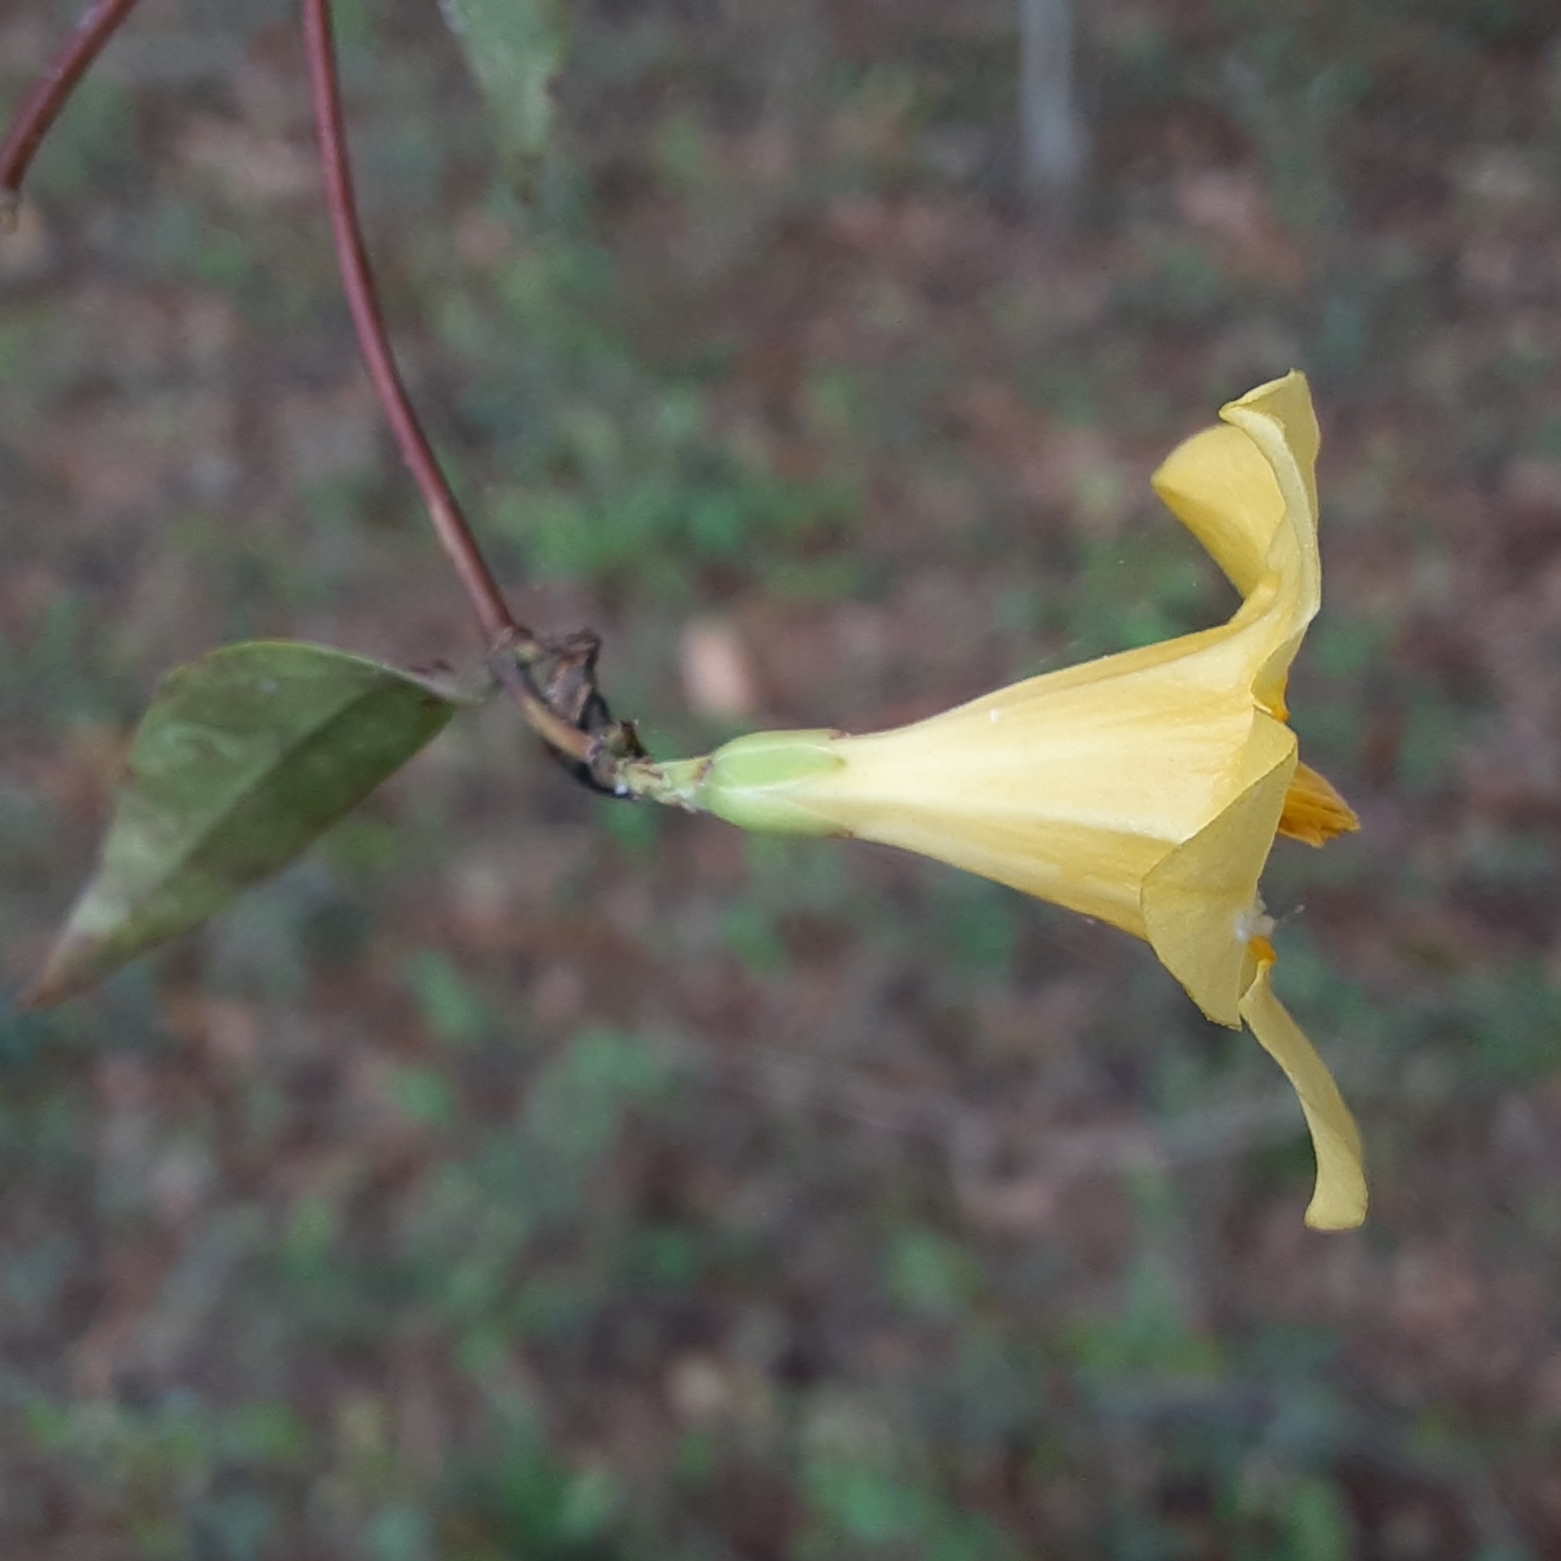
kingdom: Plantae
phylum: Tracheophyta
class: Magnoliopsida
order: Gentianales
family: Gelsemiaceae
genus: Gelsemium
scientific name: Gelsemium sempervirens
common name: Carolina-jasmine
